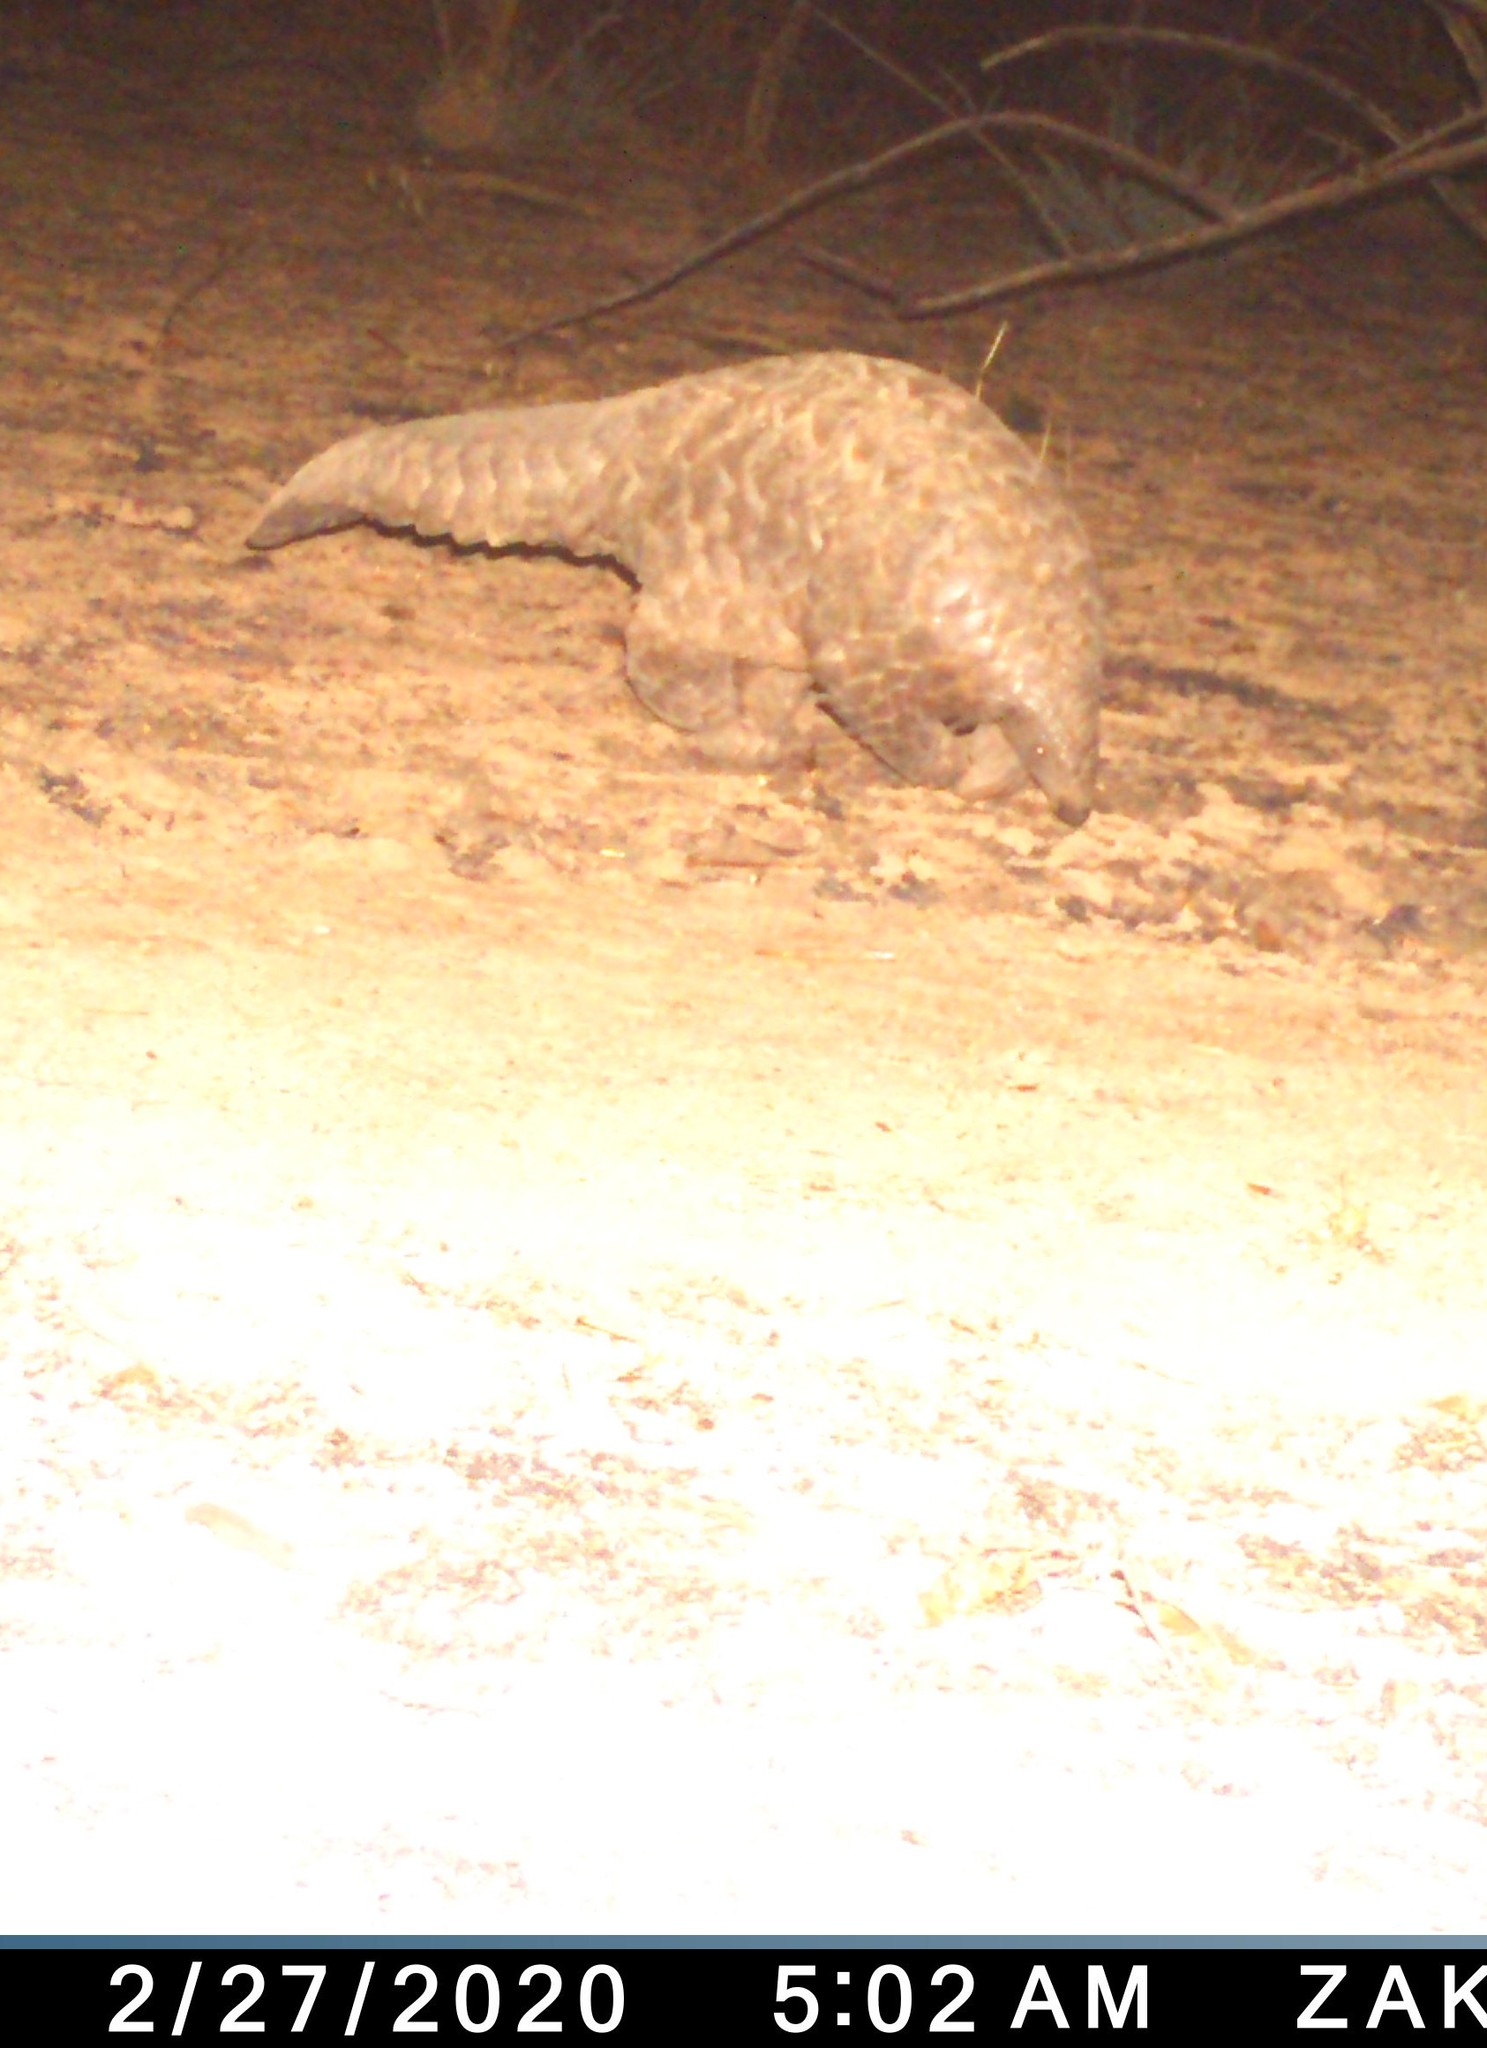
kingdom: Animalia
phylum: Chordata
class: Mammalia
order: Pholidota
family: Manidae
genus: Manis
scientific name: Manis temminckii
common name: Ground pangolin
